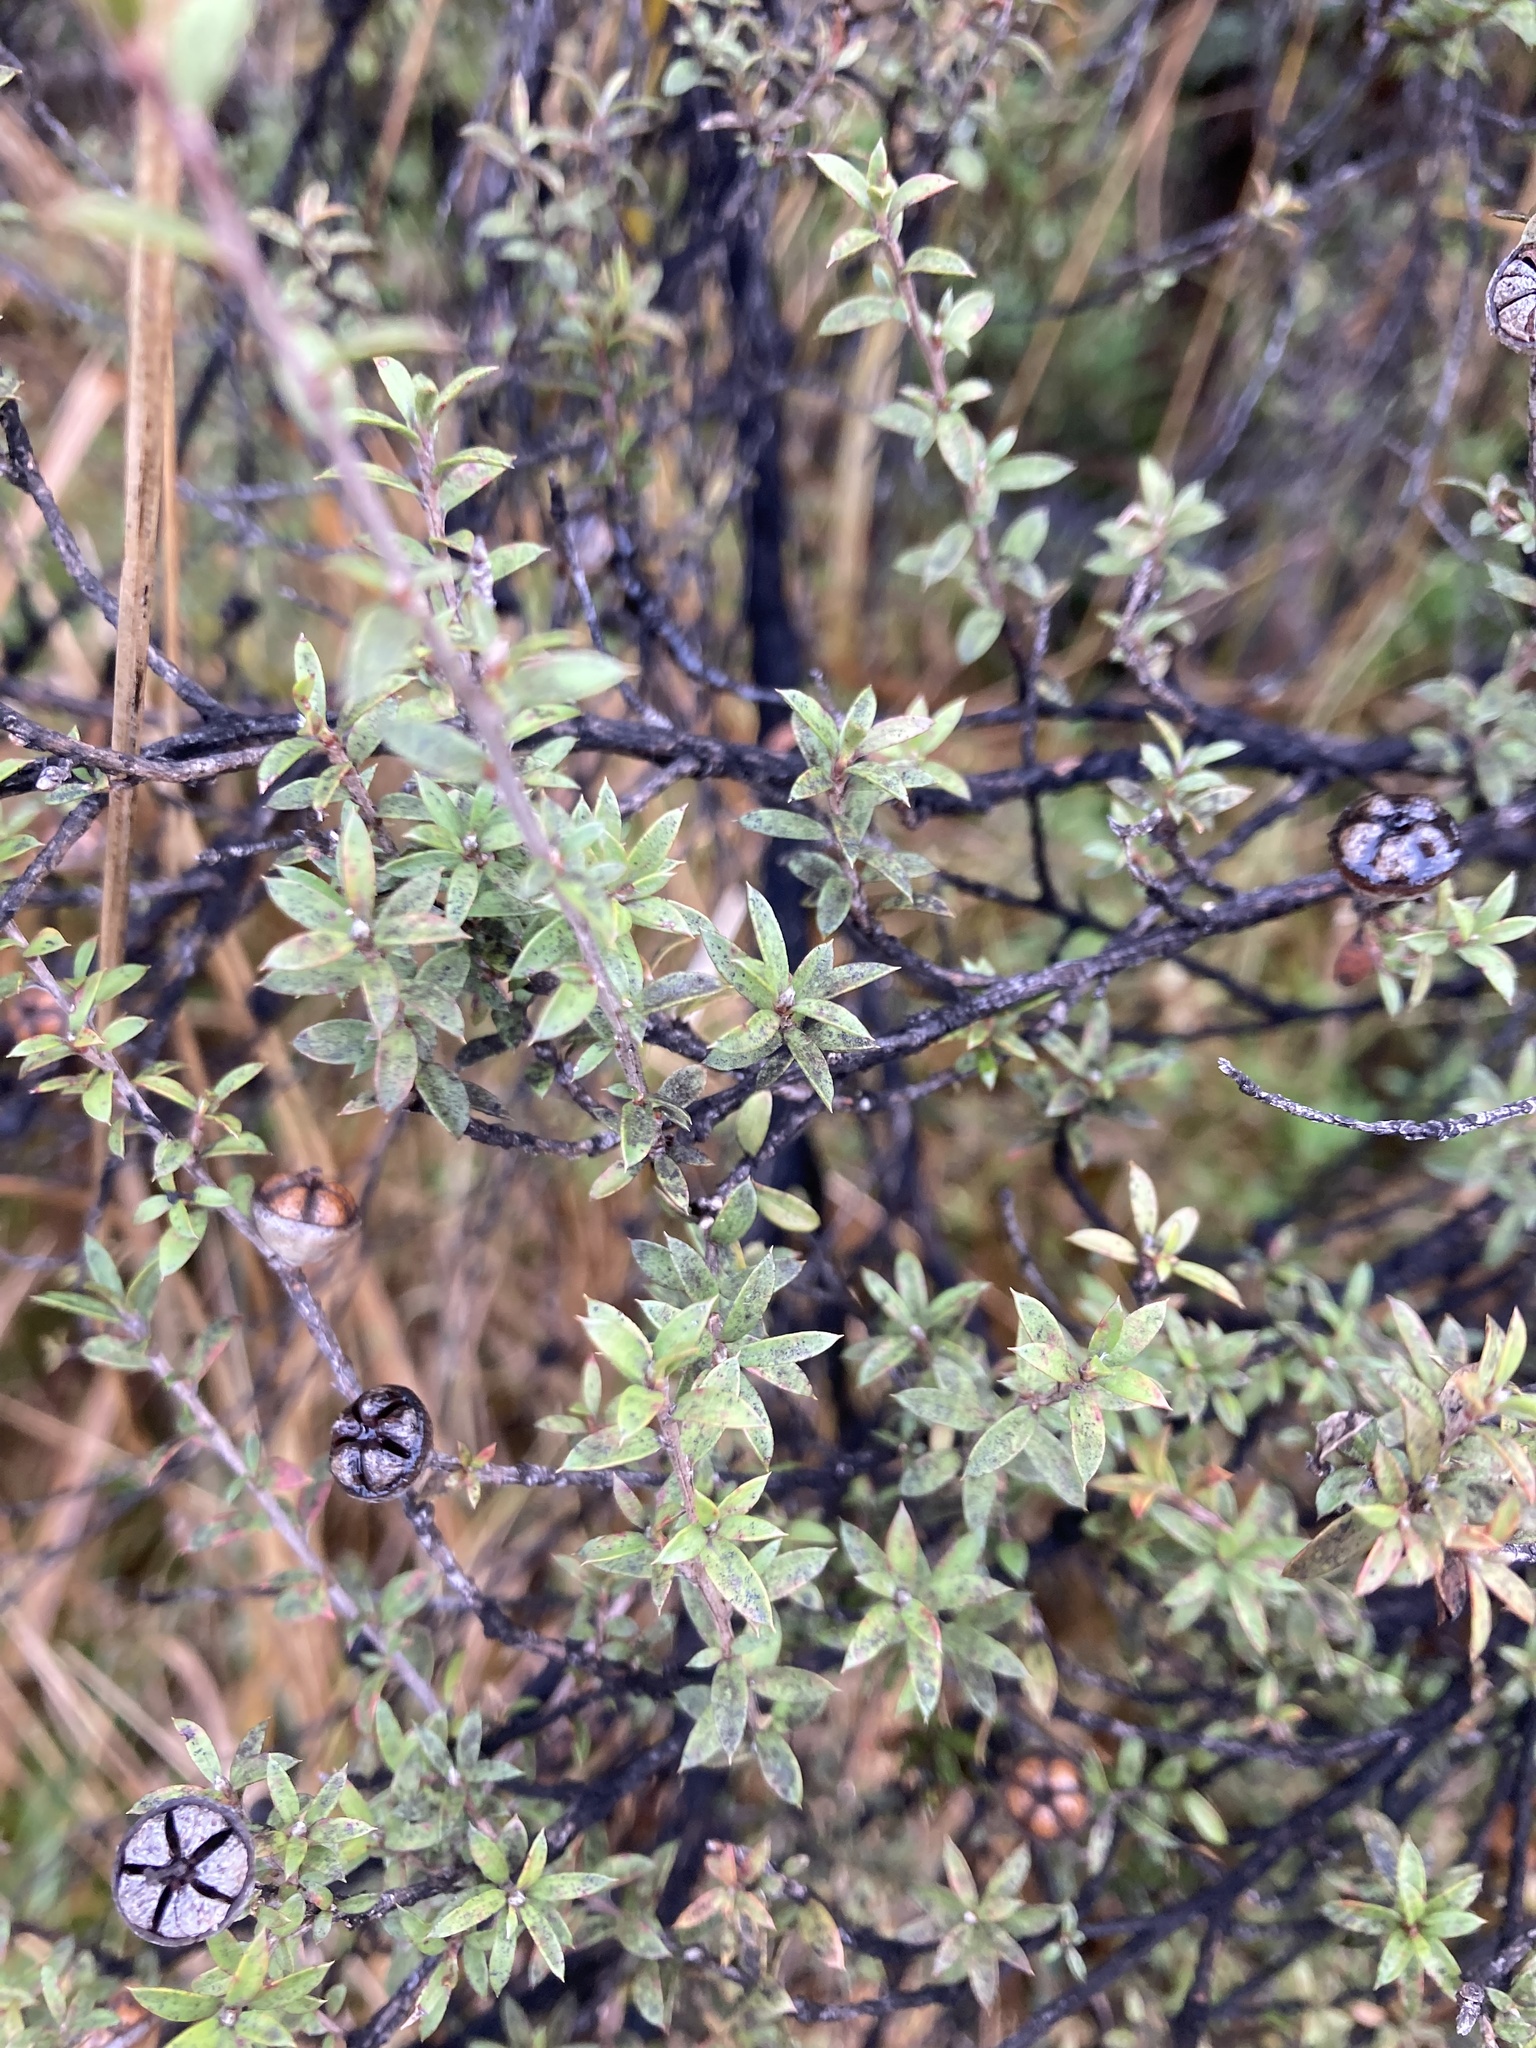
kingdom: Plantae
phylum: Tracheophyta
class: Magnoliopsida
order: Myrtales
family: Myrtaceae
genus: Leptospermum
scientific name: Leptospermum scoparium
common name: Broom tea-tree
